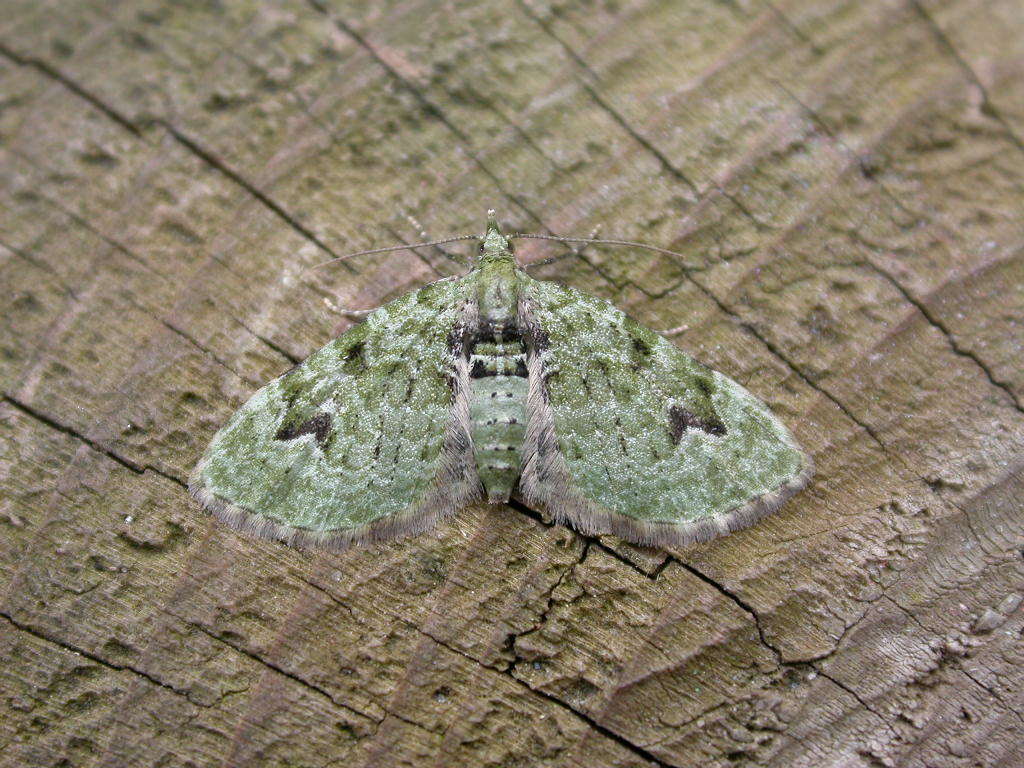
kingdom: Animalia
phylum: Arthropoda
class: Insecta
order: Lepidoptera
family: Geometridae
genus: Chloroclystis
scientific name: Chloroclystis v-ata
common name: V-pug
